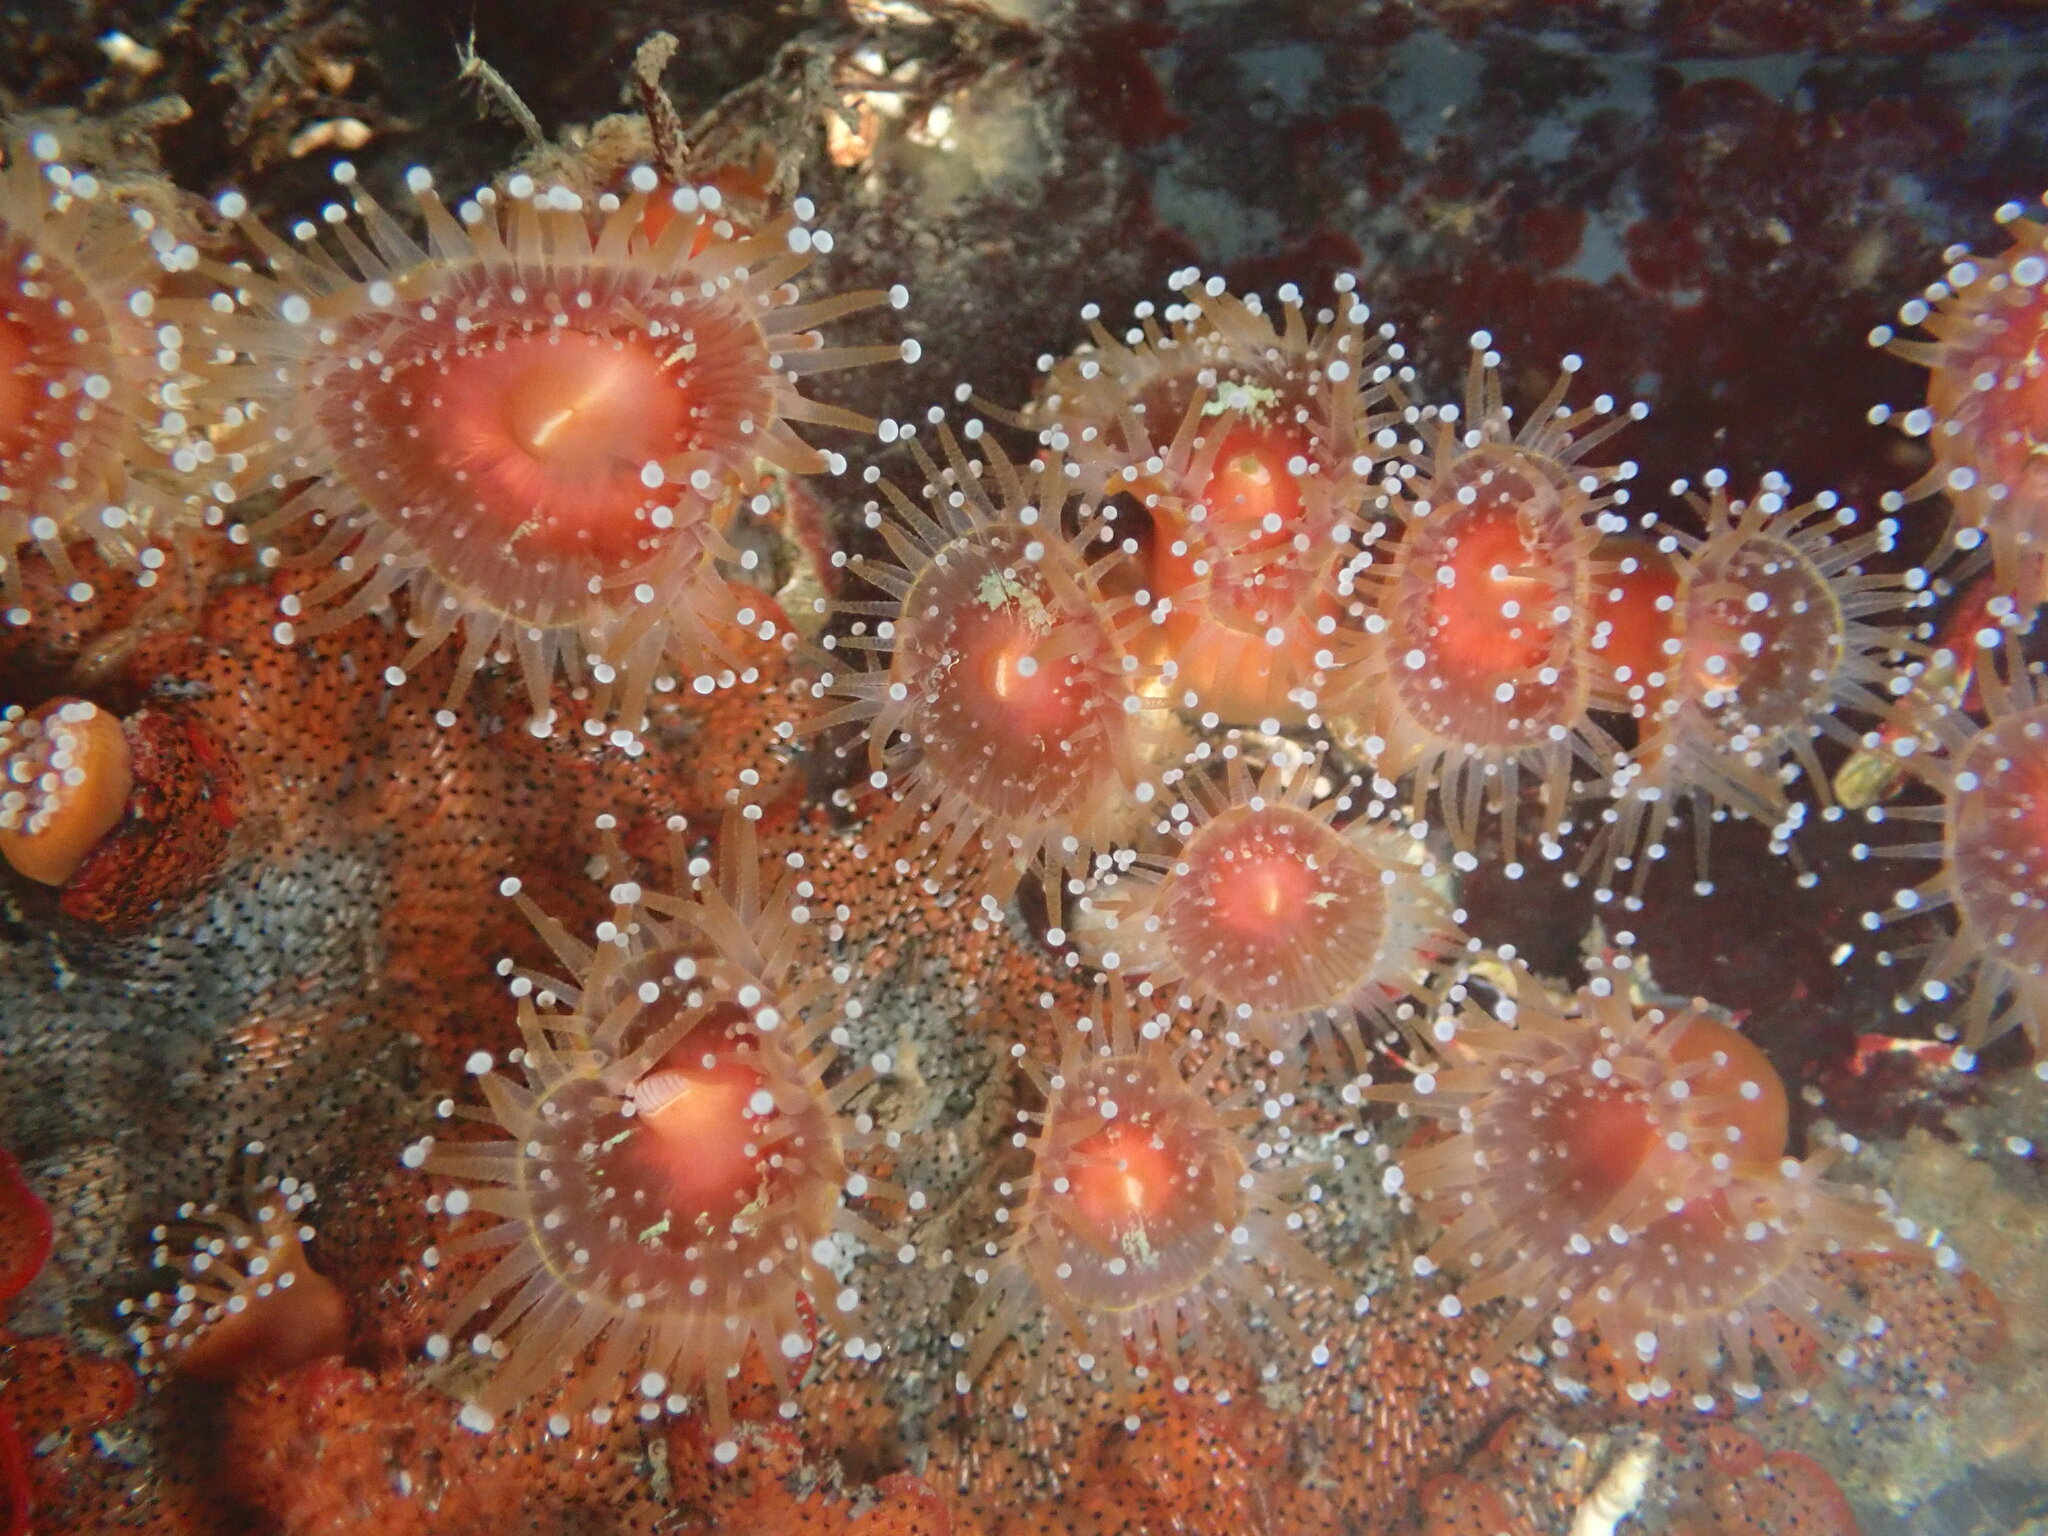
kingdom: Animalia
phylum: Cnidaria
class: Anthozoa
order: Corallimorpharia
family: Corallimorphidae
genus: Corynactis
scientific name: Corynactis californica
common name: Strawberry corallimorpharian
